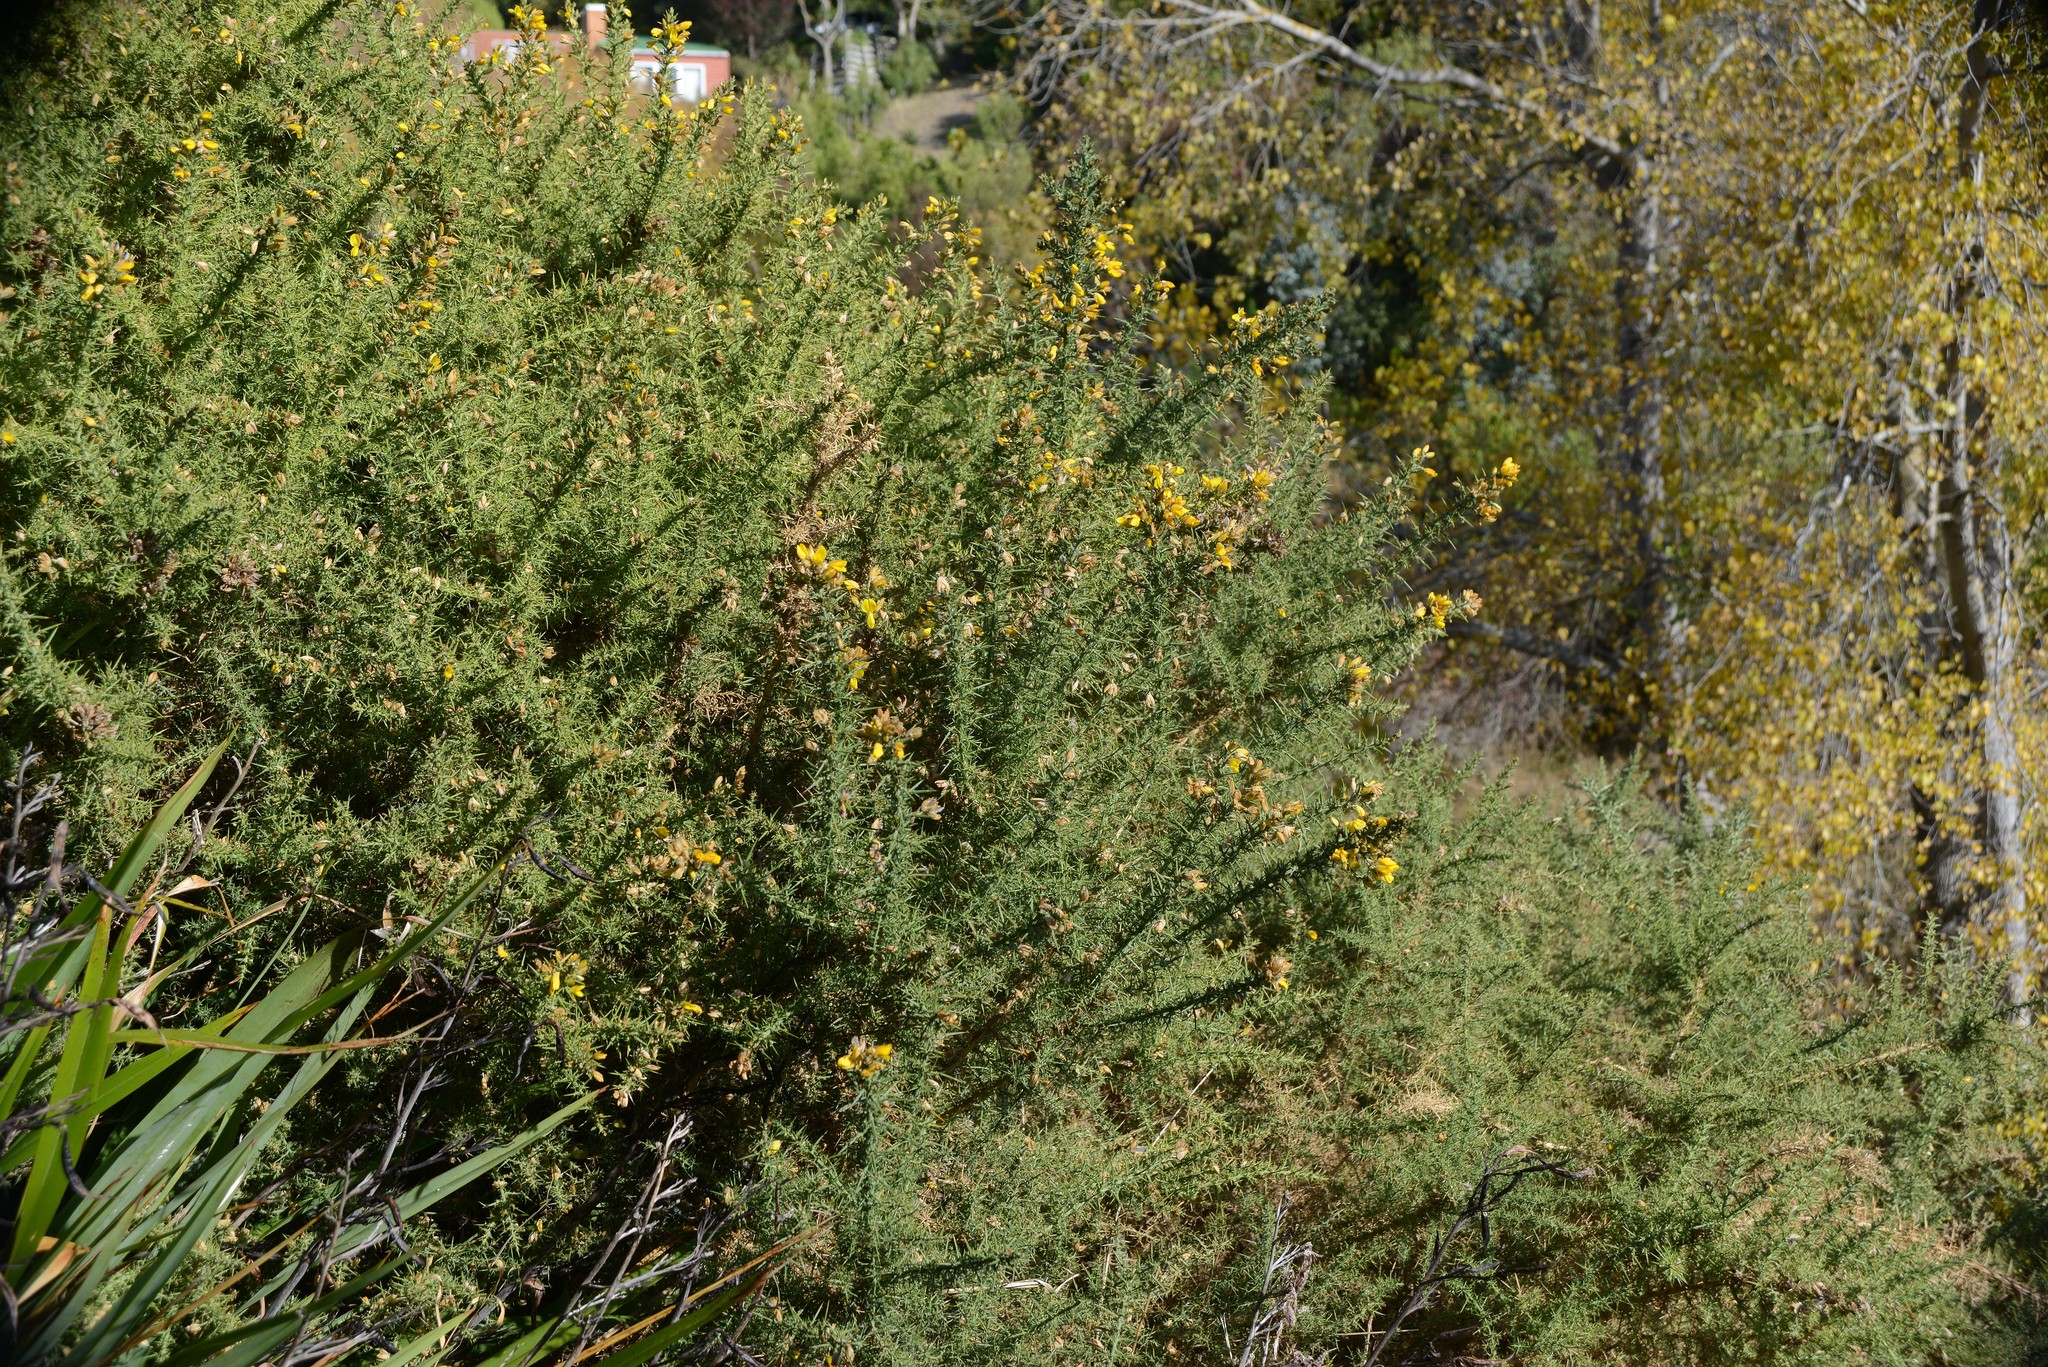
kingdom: Plantae
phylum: Tracheophyta
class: Magnoliopsida
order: Fabales
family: Fabaceae
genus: Ulex
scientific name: Ulex europaeus
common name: Common gorse
